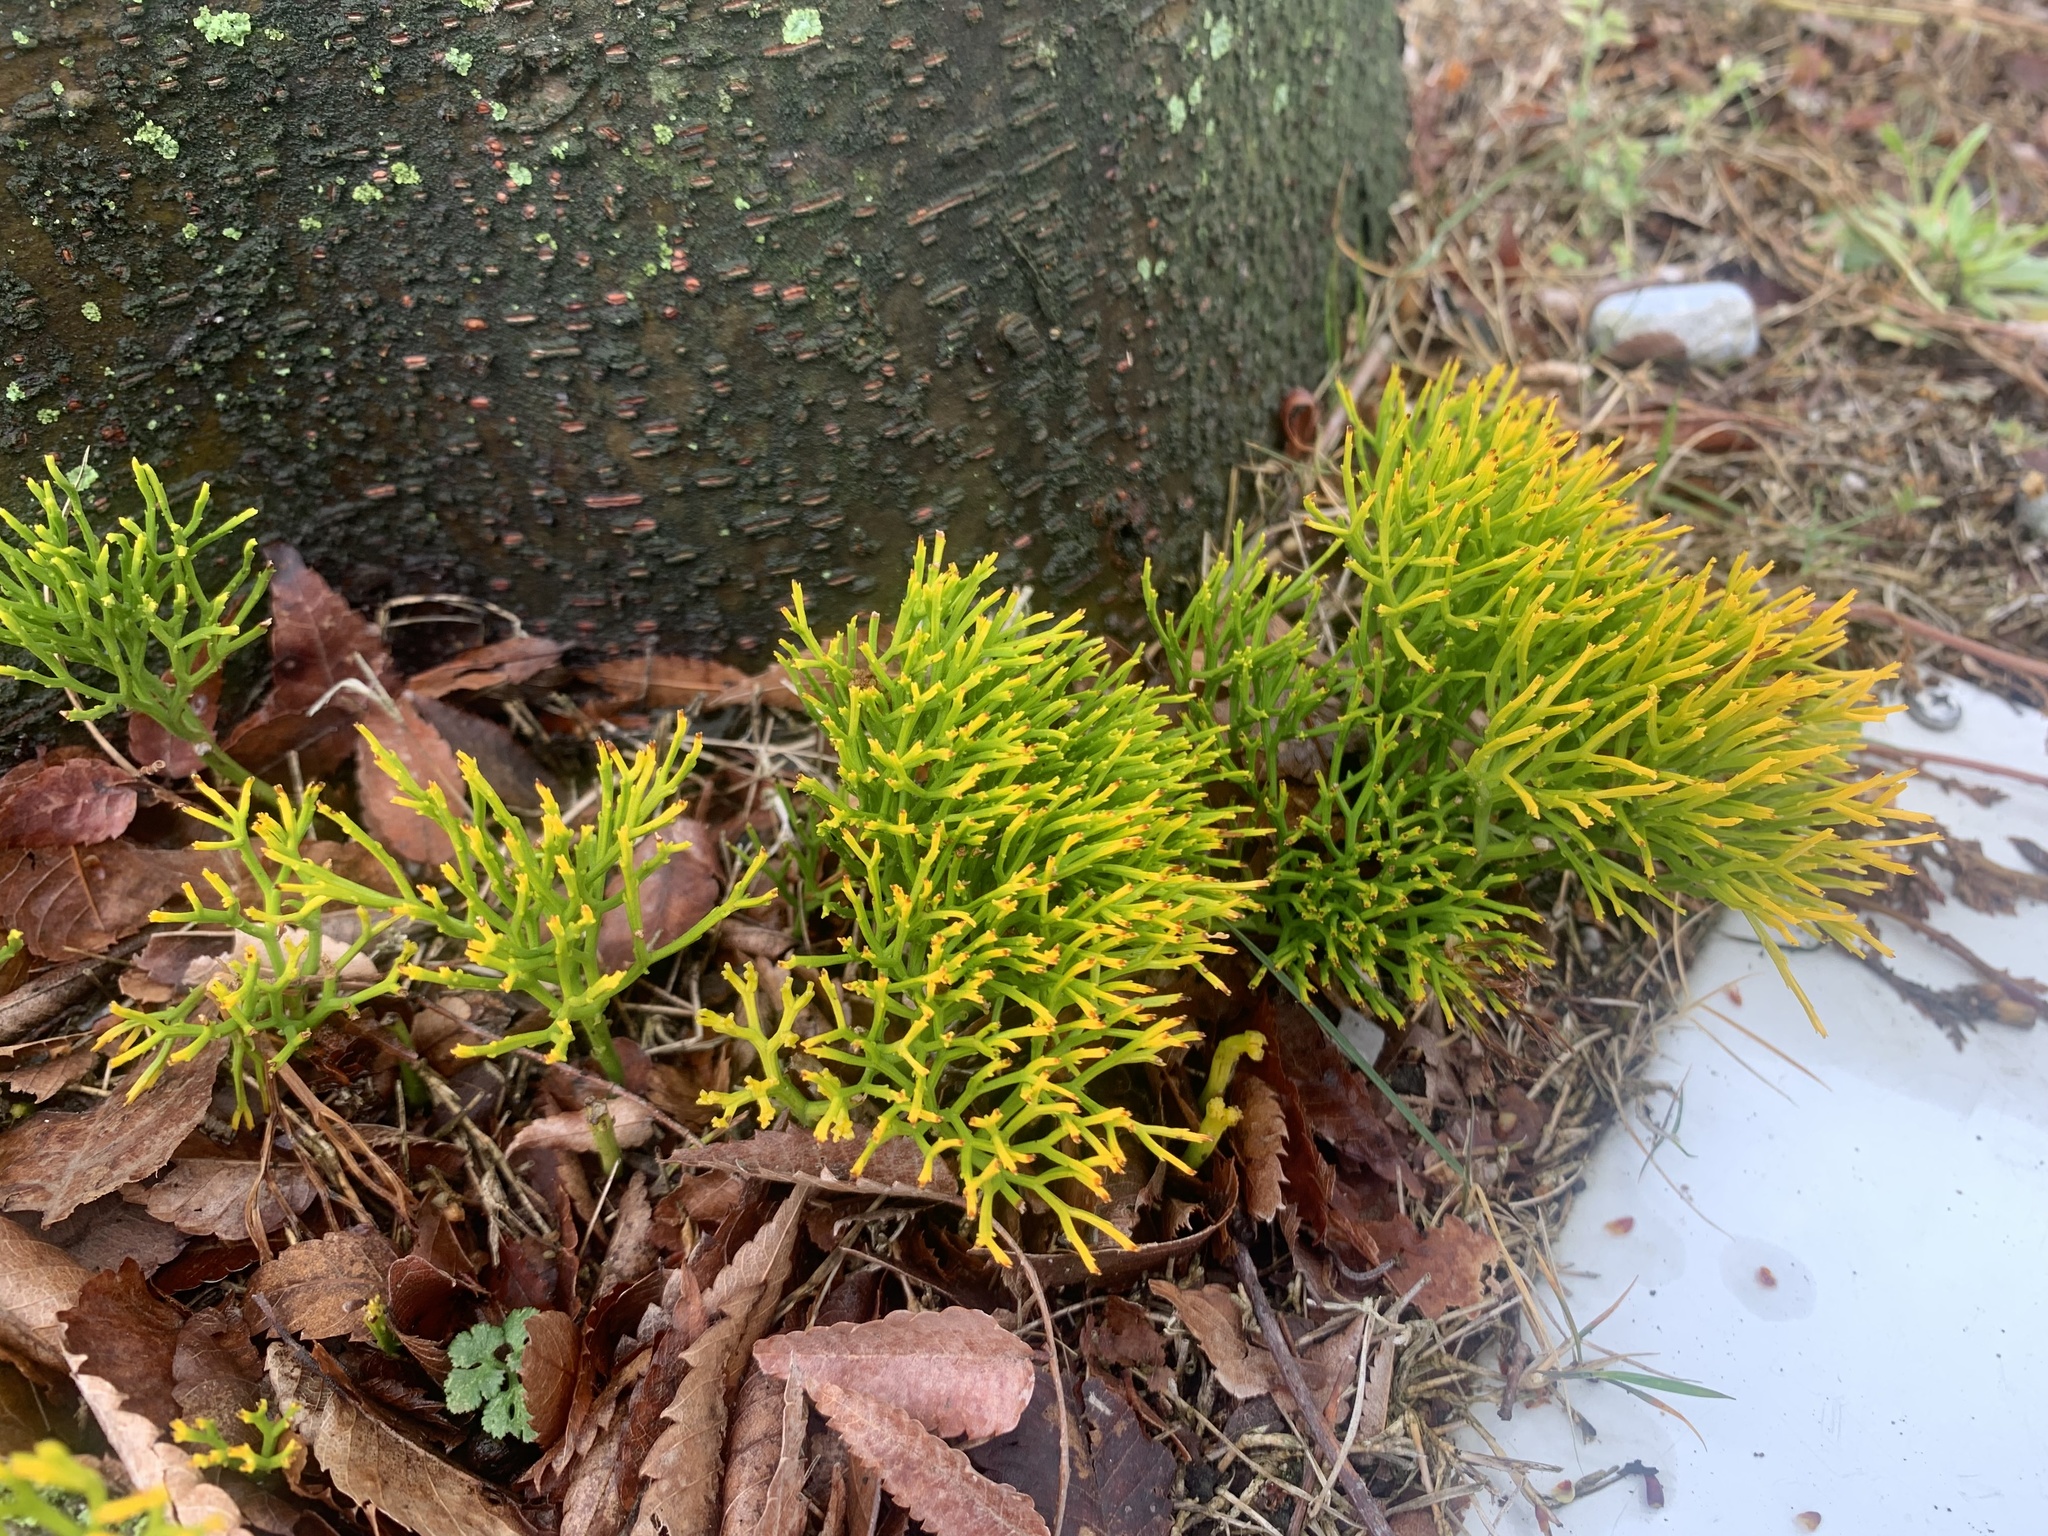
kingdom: Plantae
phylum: Tracheophyta
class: Polypodiopsida
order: Psilotales
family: Psilotaceae
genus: Psilotum
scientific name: Psilotum nudum
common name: Skeleton fork fern
